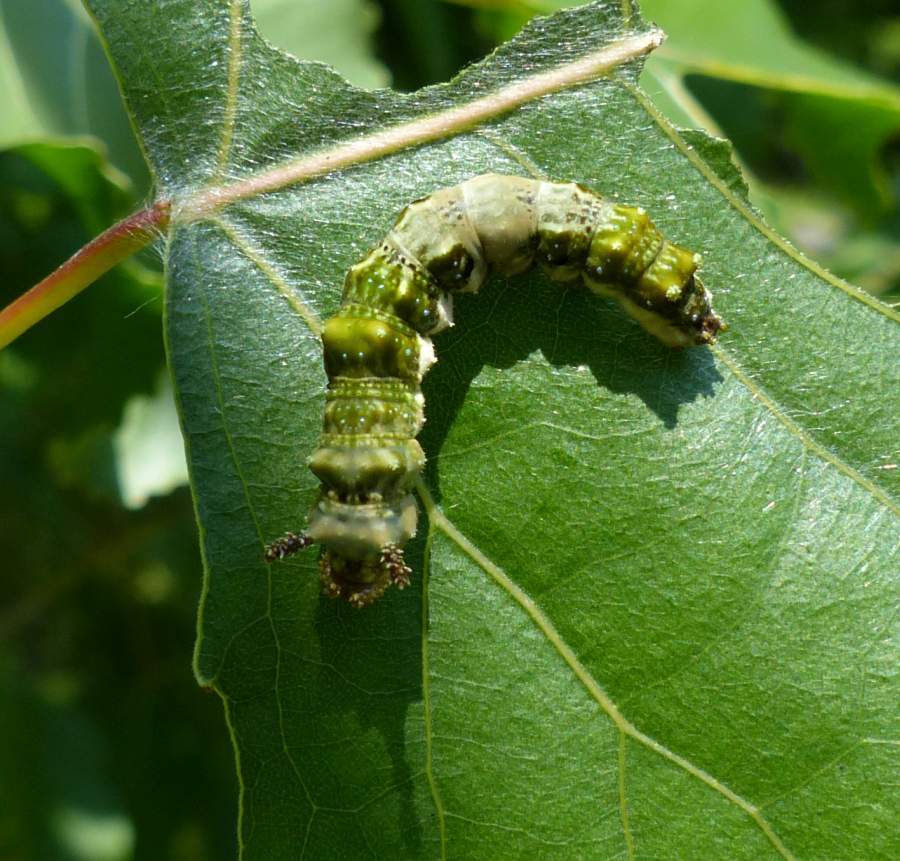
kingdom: Animalia
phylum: Arthropoda
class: Insecta
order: Lepidoptera
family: Nymphalidae
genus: Limenitis
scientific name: Limenitis
